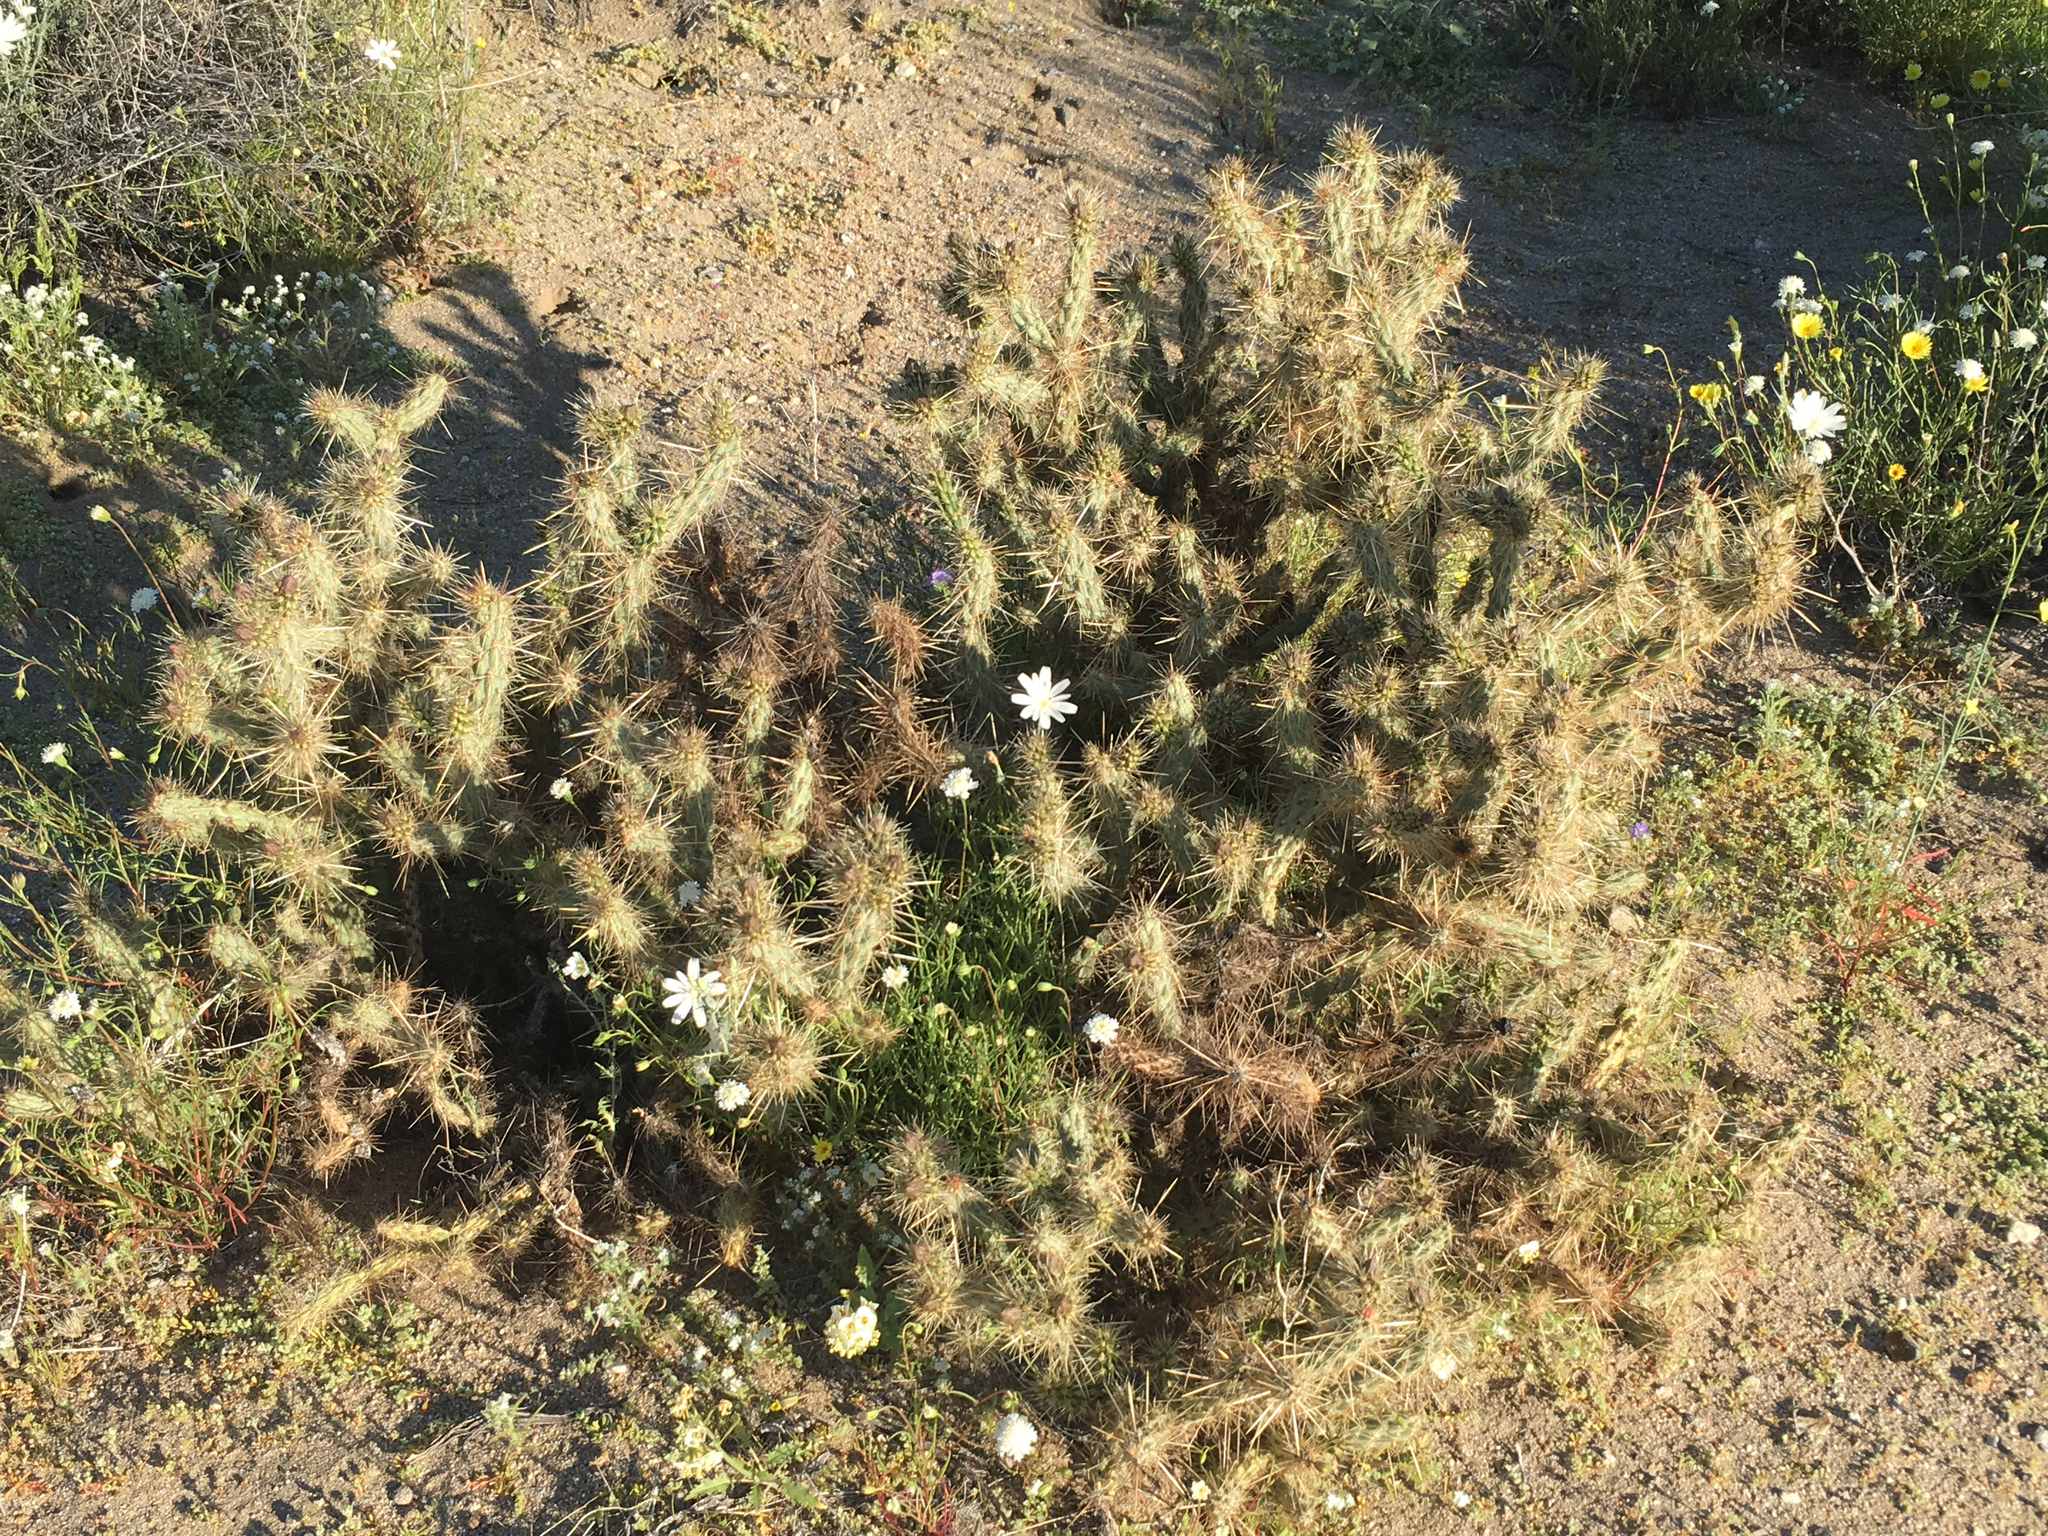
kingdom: Plantae
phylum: Tracheophyta
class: Magnoliopsida
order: Caryophyllales
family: Cactaceae
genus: Cylindropuntia
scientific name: Cylindropuntia echinocarpa
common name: Ground cholla
